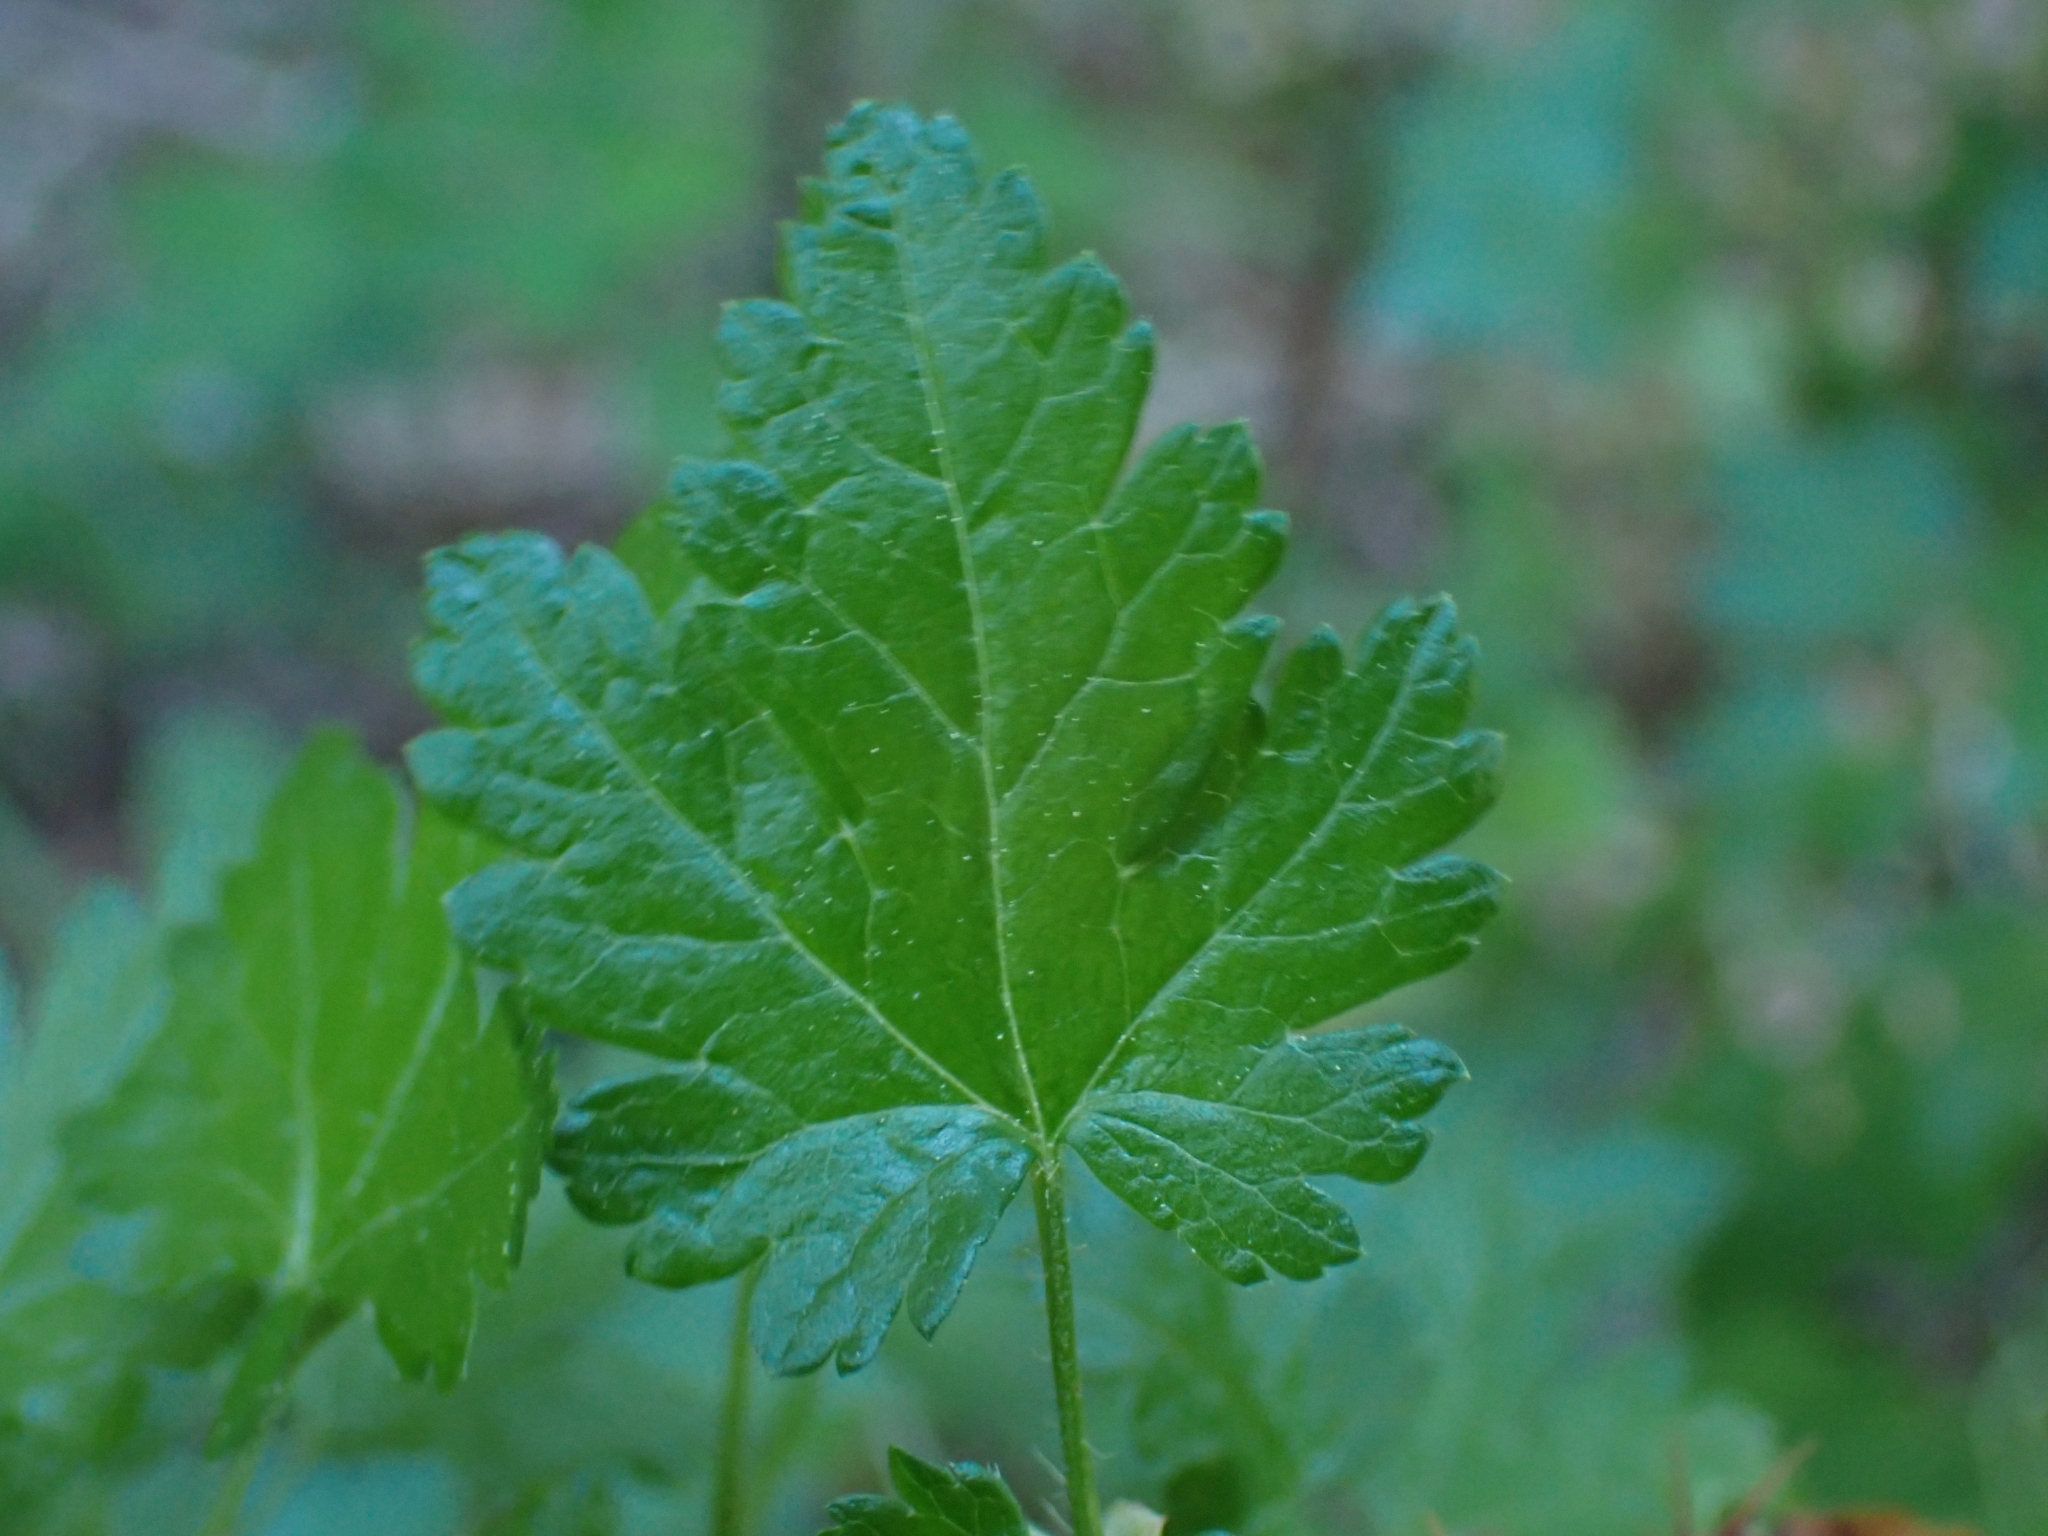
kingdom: Plantae
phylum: Tracheophyta
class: Magnoliopsida
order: Saxifragales
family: Grossulariaceae
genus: Ribes
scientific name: Ribes lacustre
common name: Black gooseberry
